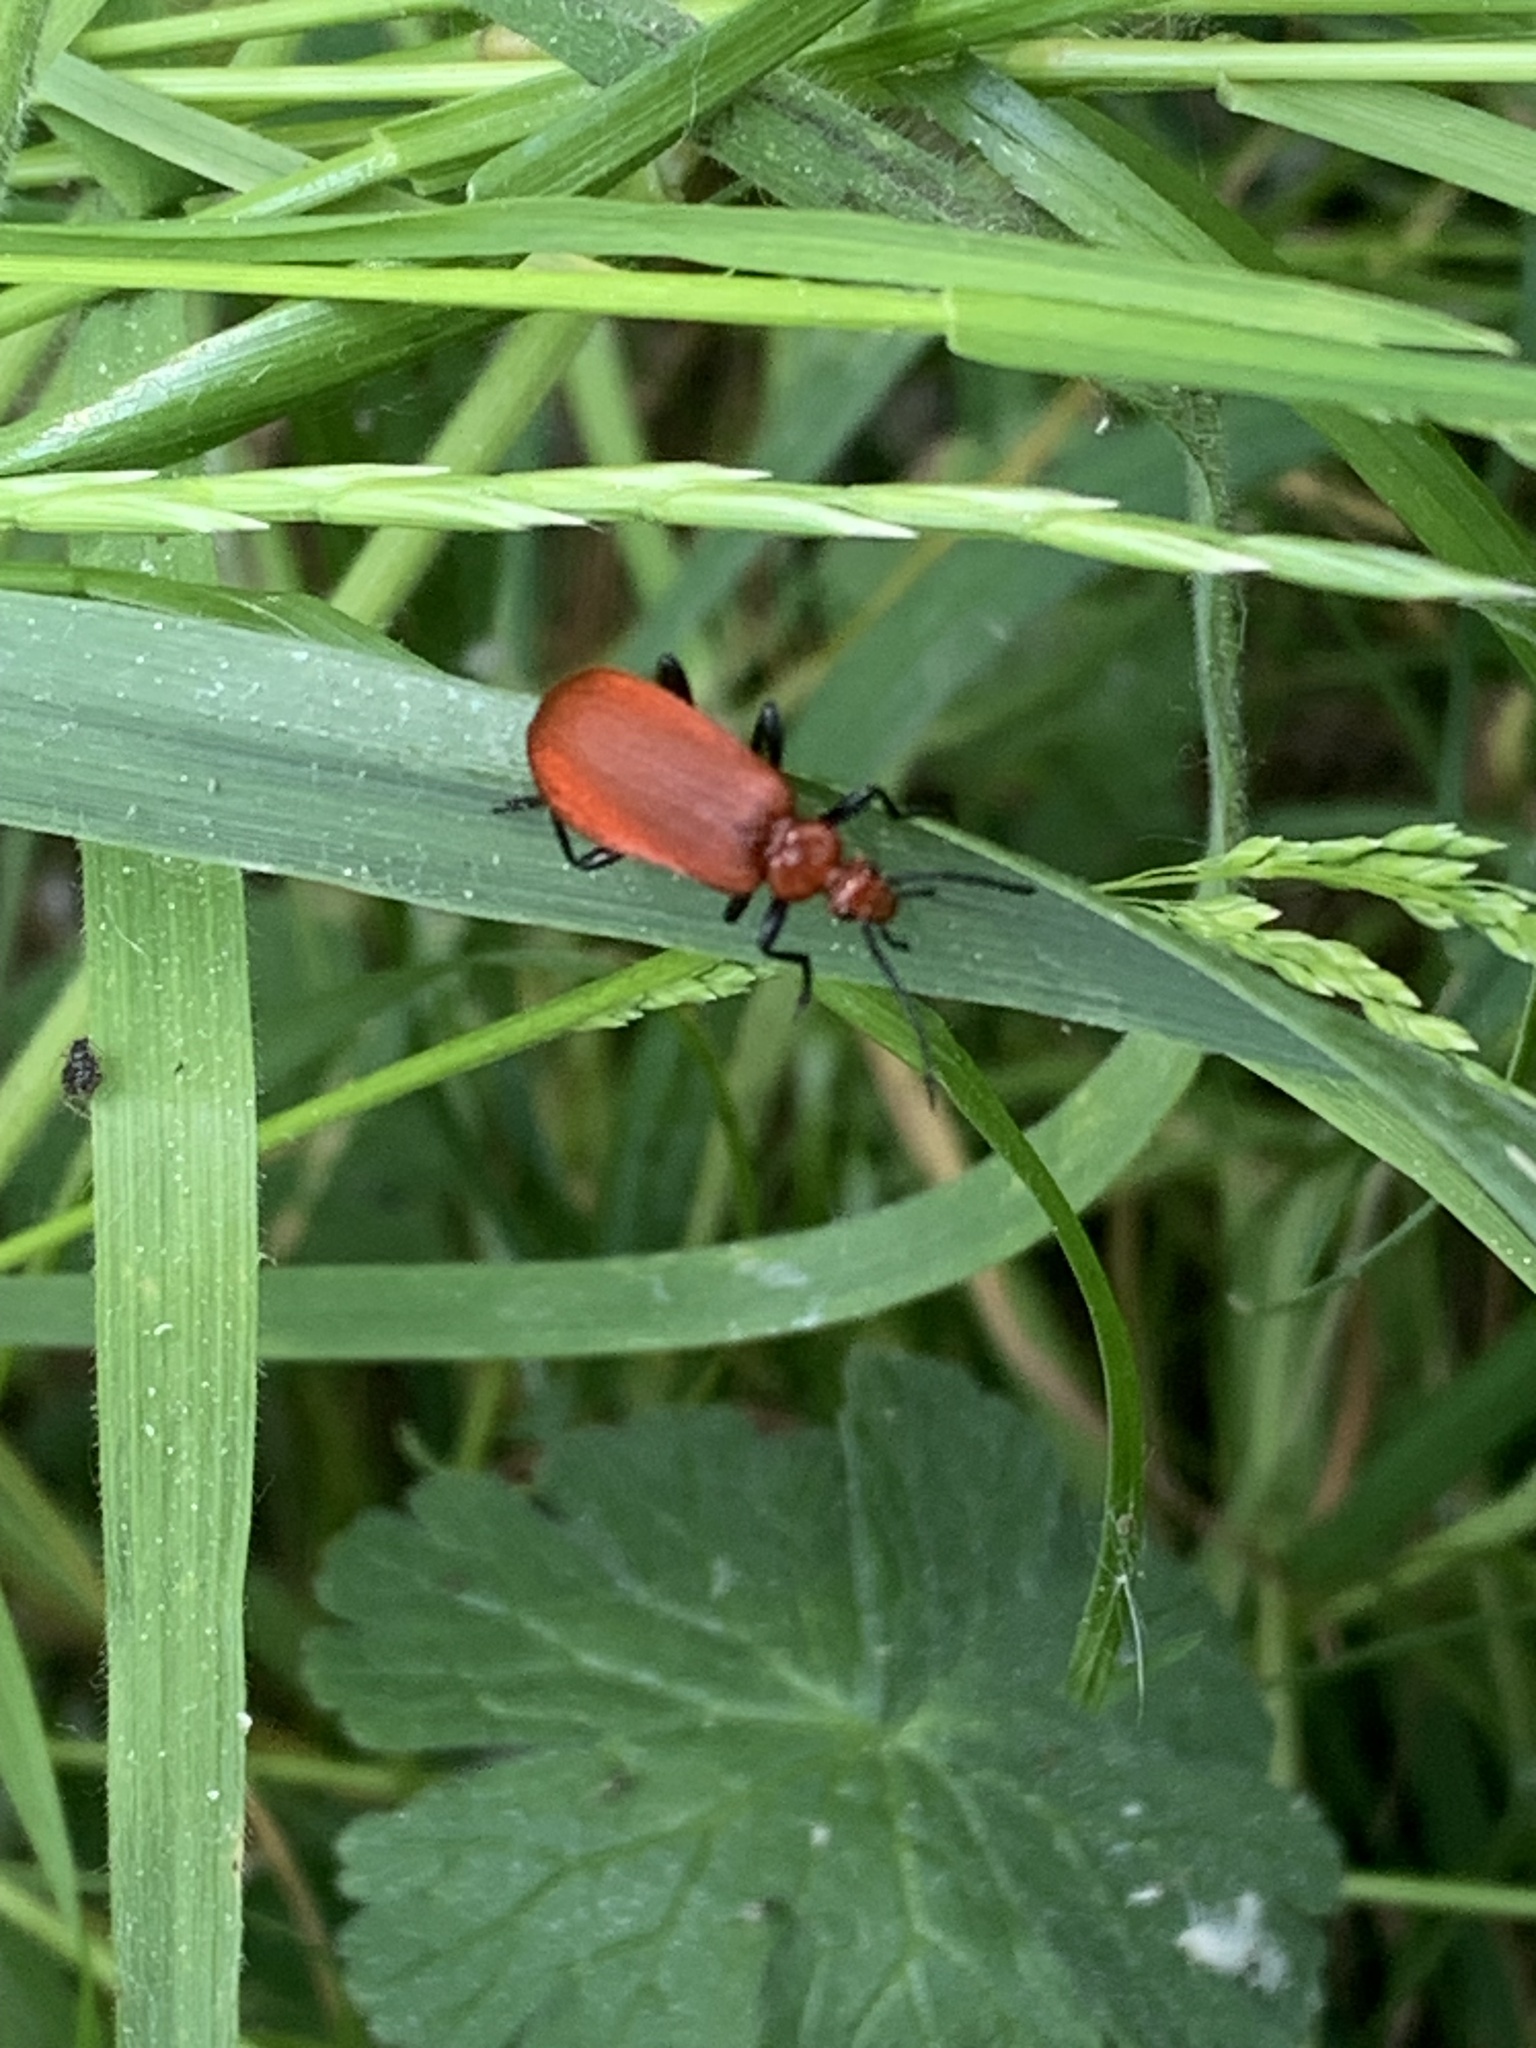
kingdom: Animalia
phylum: Arthropoda
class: Insecta
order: Coleoptera
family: Pyrochroidae
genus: Pyrochroa
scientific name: Pyrochroa serraticornis
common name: Red-headed cardinal beetle
